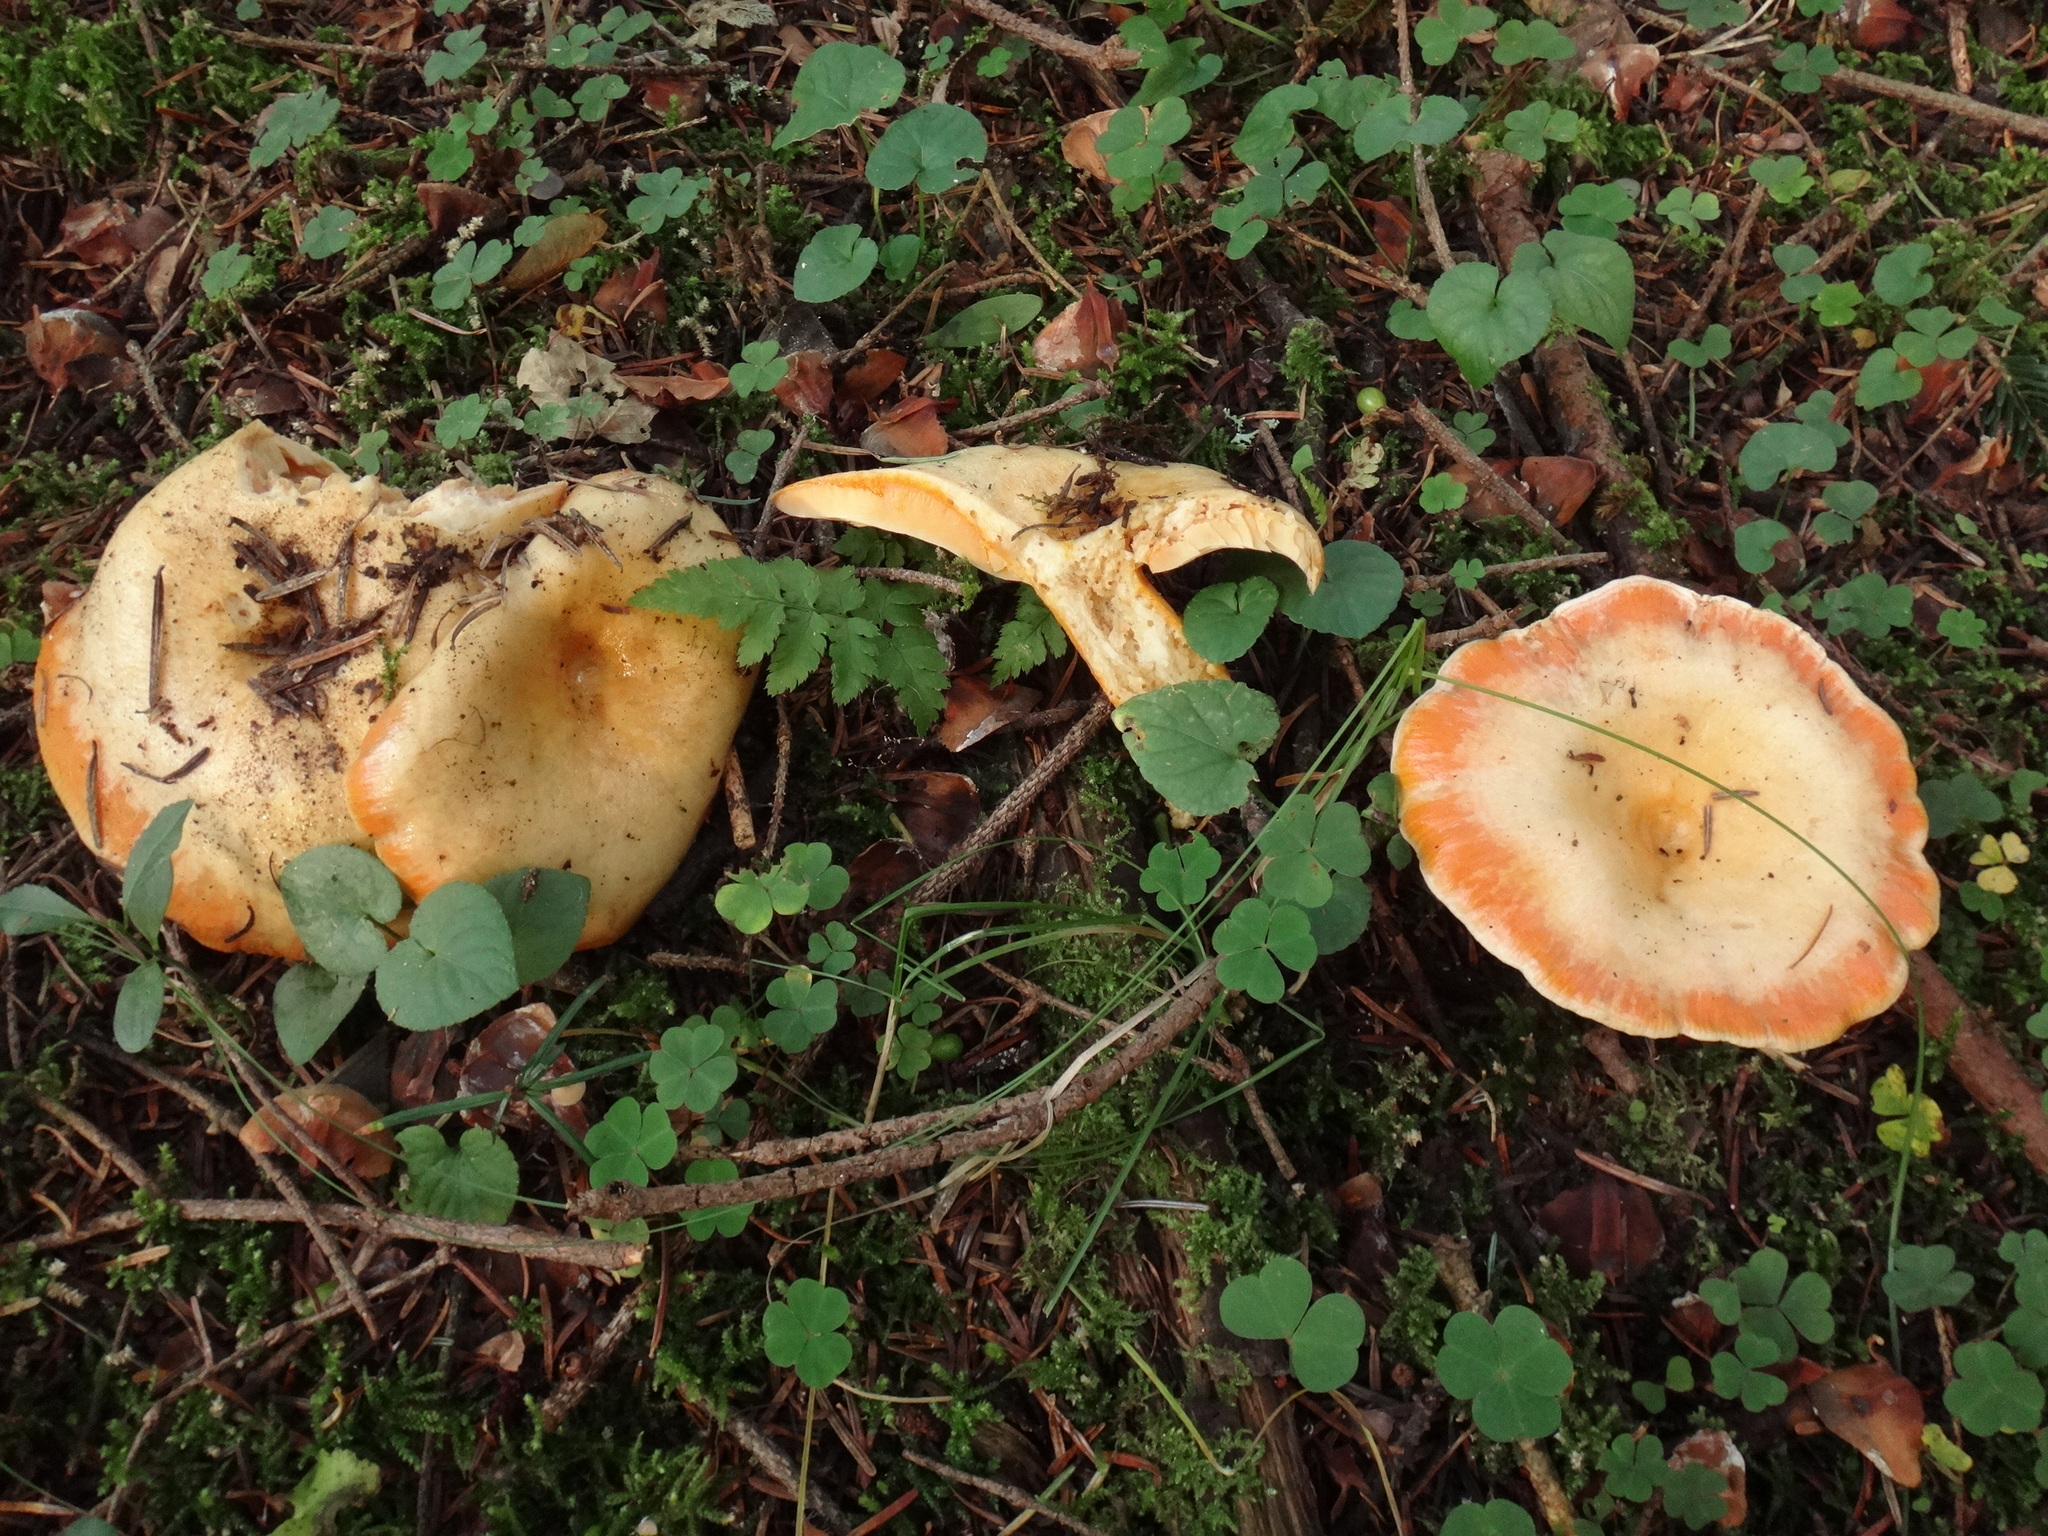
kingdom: Fungi
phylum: Basidiomycota
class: Agaricomycetes
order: Russulales
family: Russulaceae
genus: Lactarius
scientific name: Lactarius deterrimus
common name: False saffron milkcap
